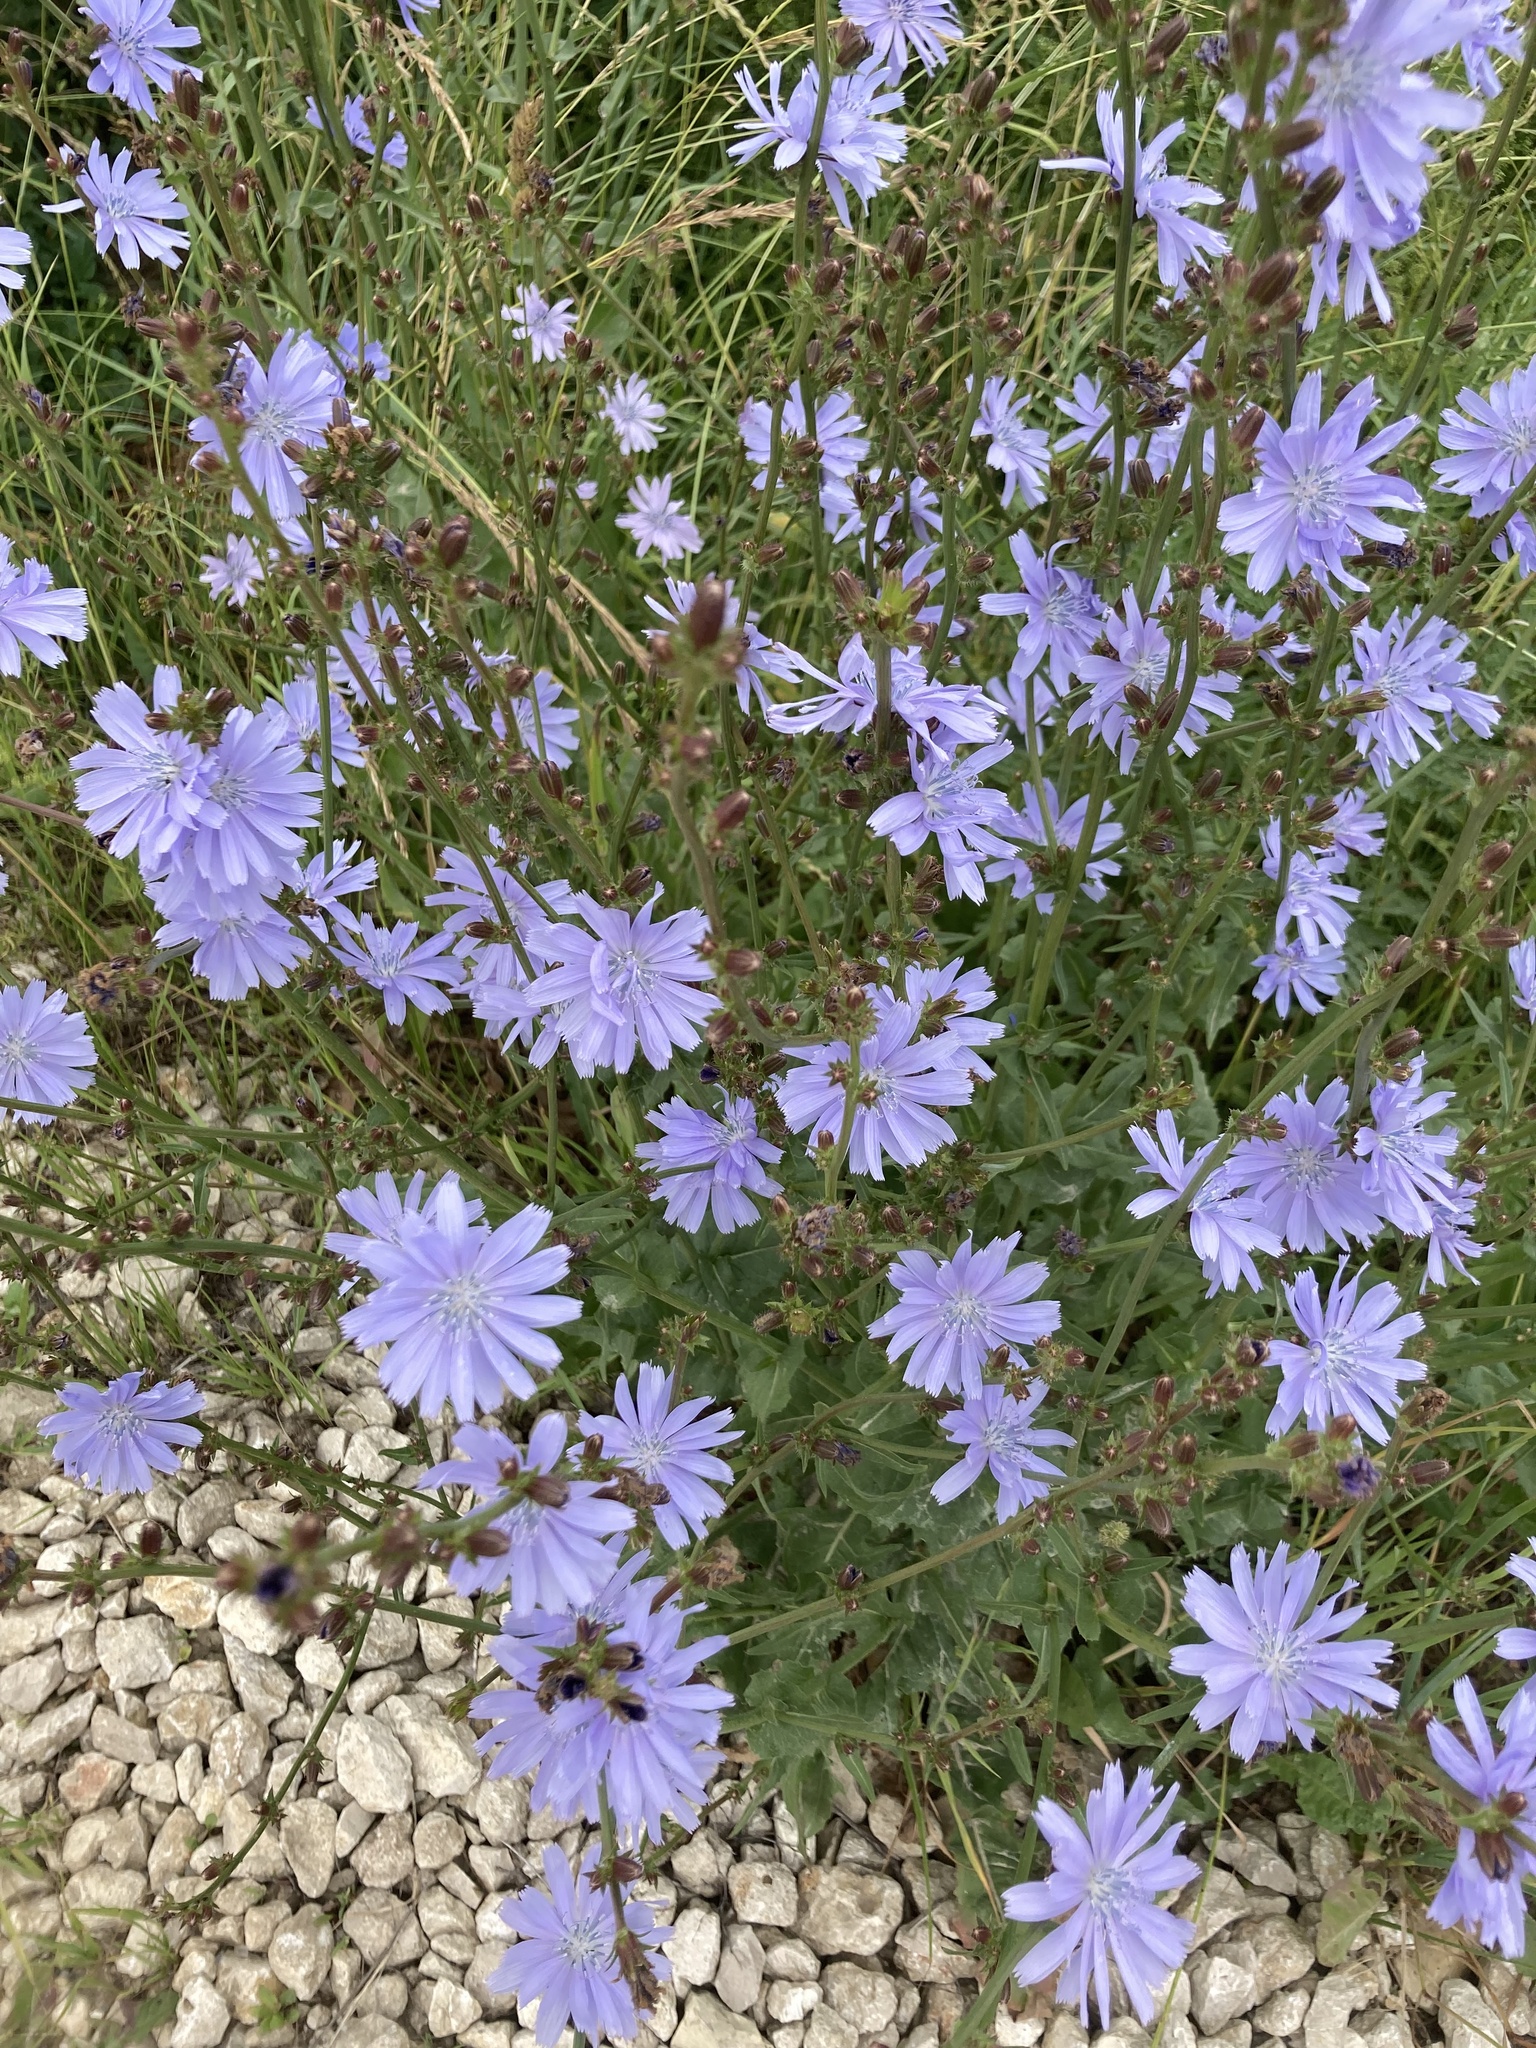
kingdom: Plantae
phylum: Tracheophyta
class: Magnoliopsida
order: Asterales
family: Asteraceae
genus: Cichorium
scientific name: Cichorium intybus
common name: Chicory
